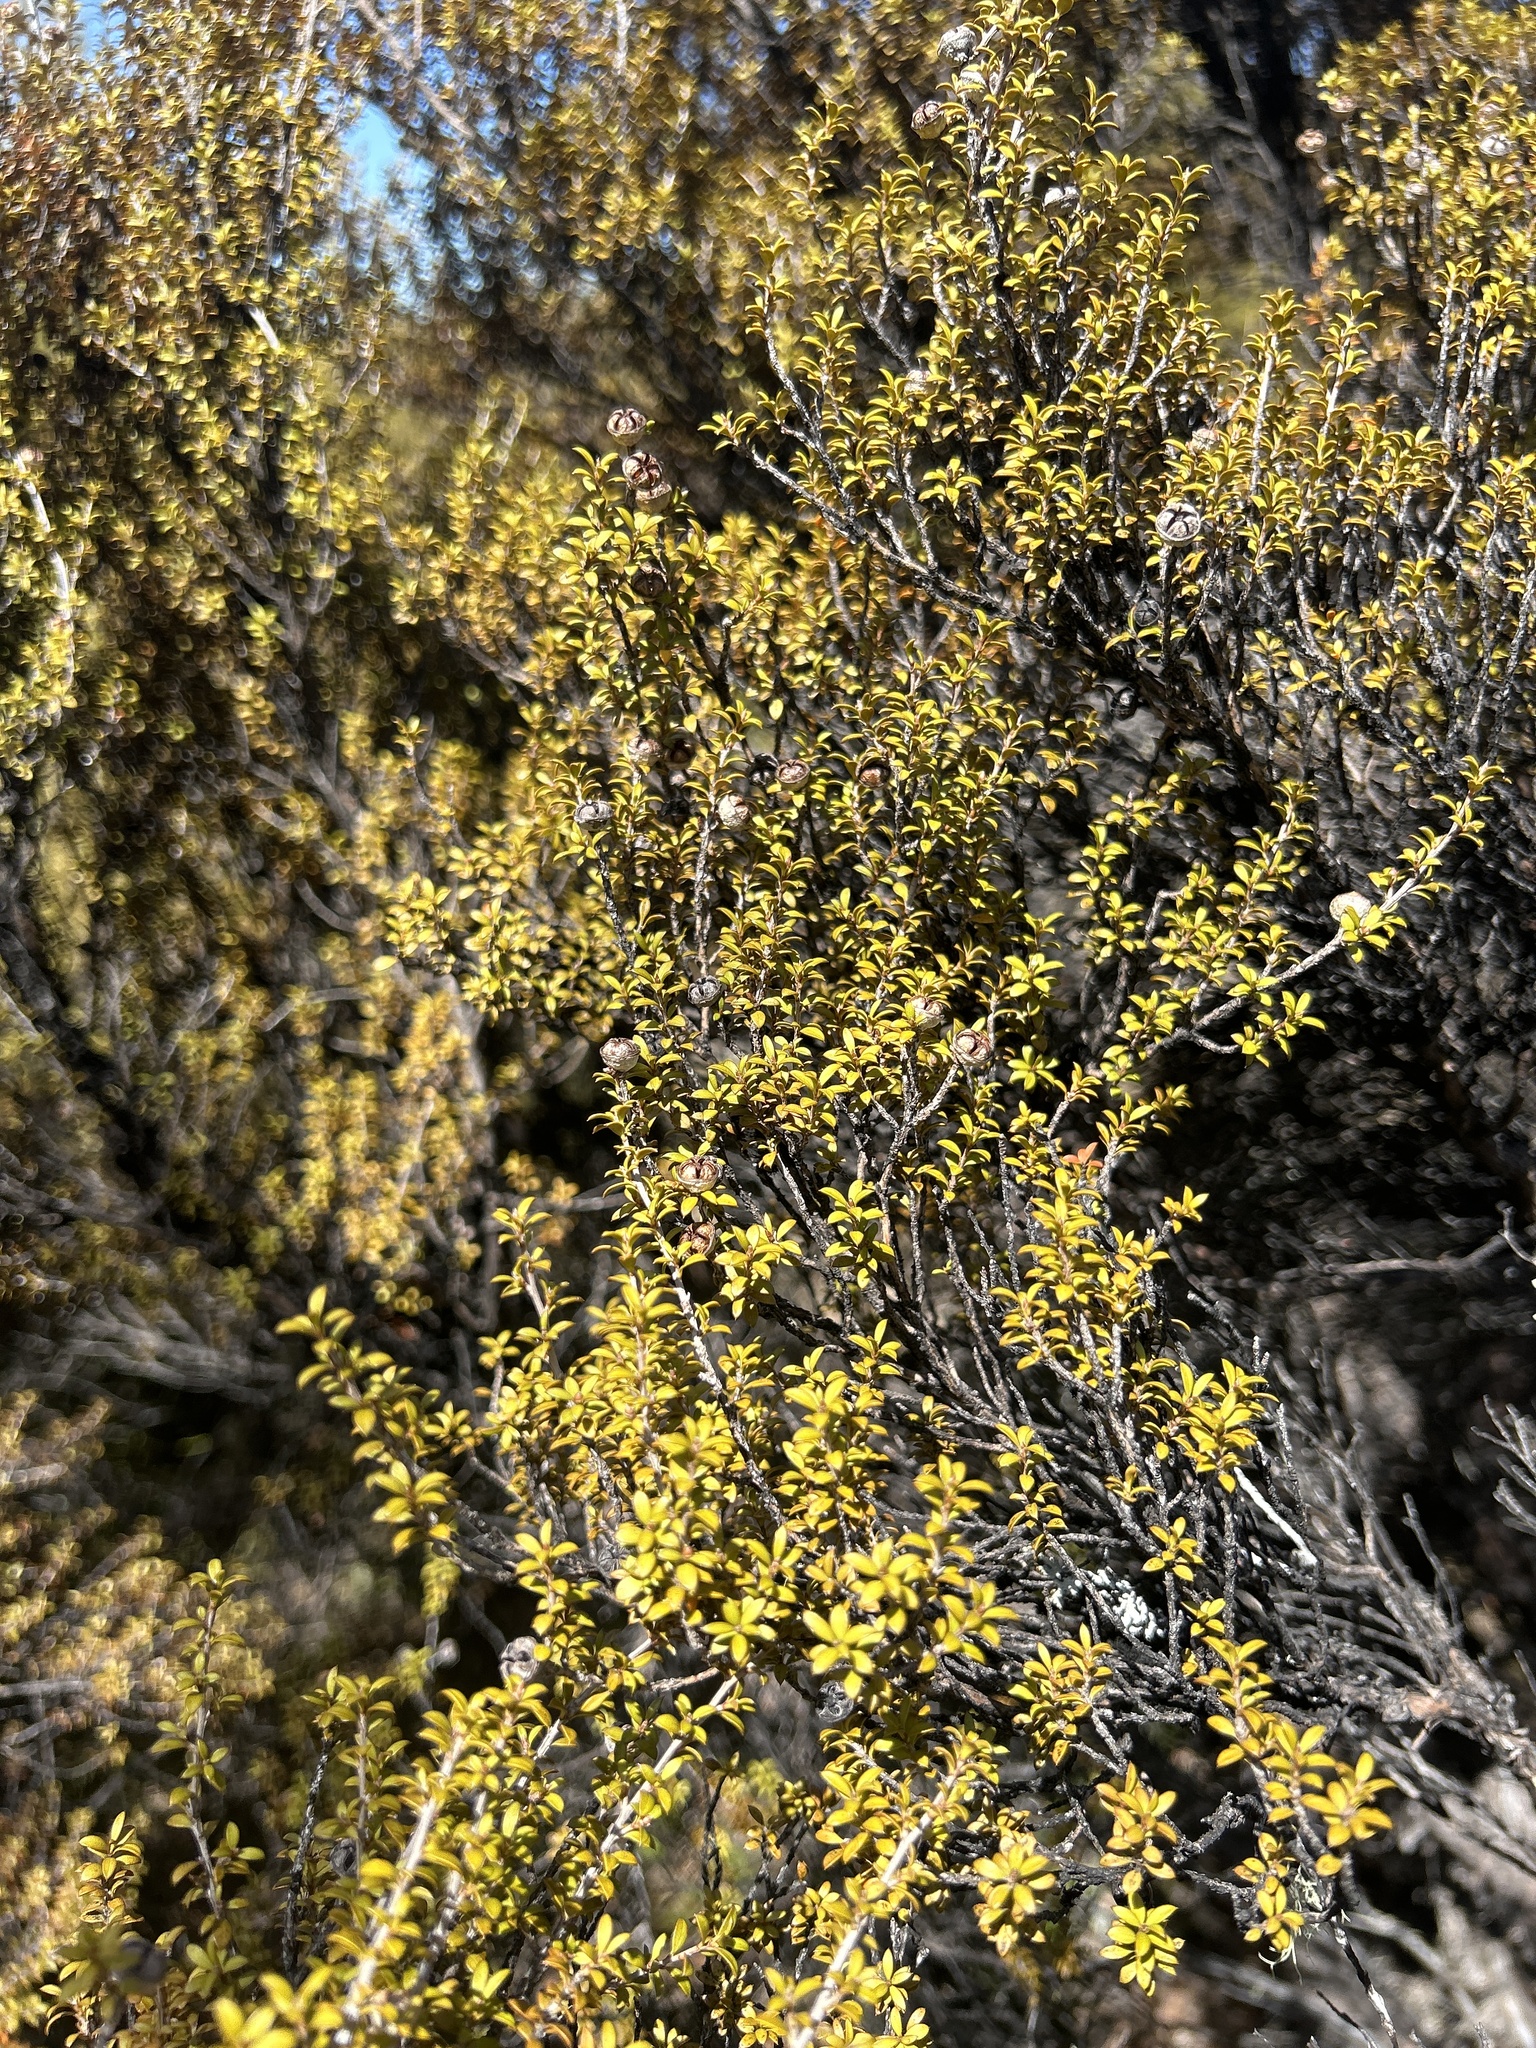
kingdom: Plantae
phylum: Tracheophyta
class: Magnoliopsida
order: Myrtales
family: Myrtaceae
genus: Leptospermum
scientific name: Leptospermum scoparium
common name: Broom tea-tree
